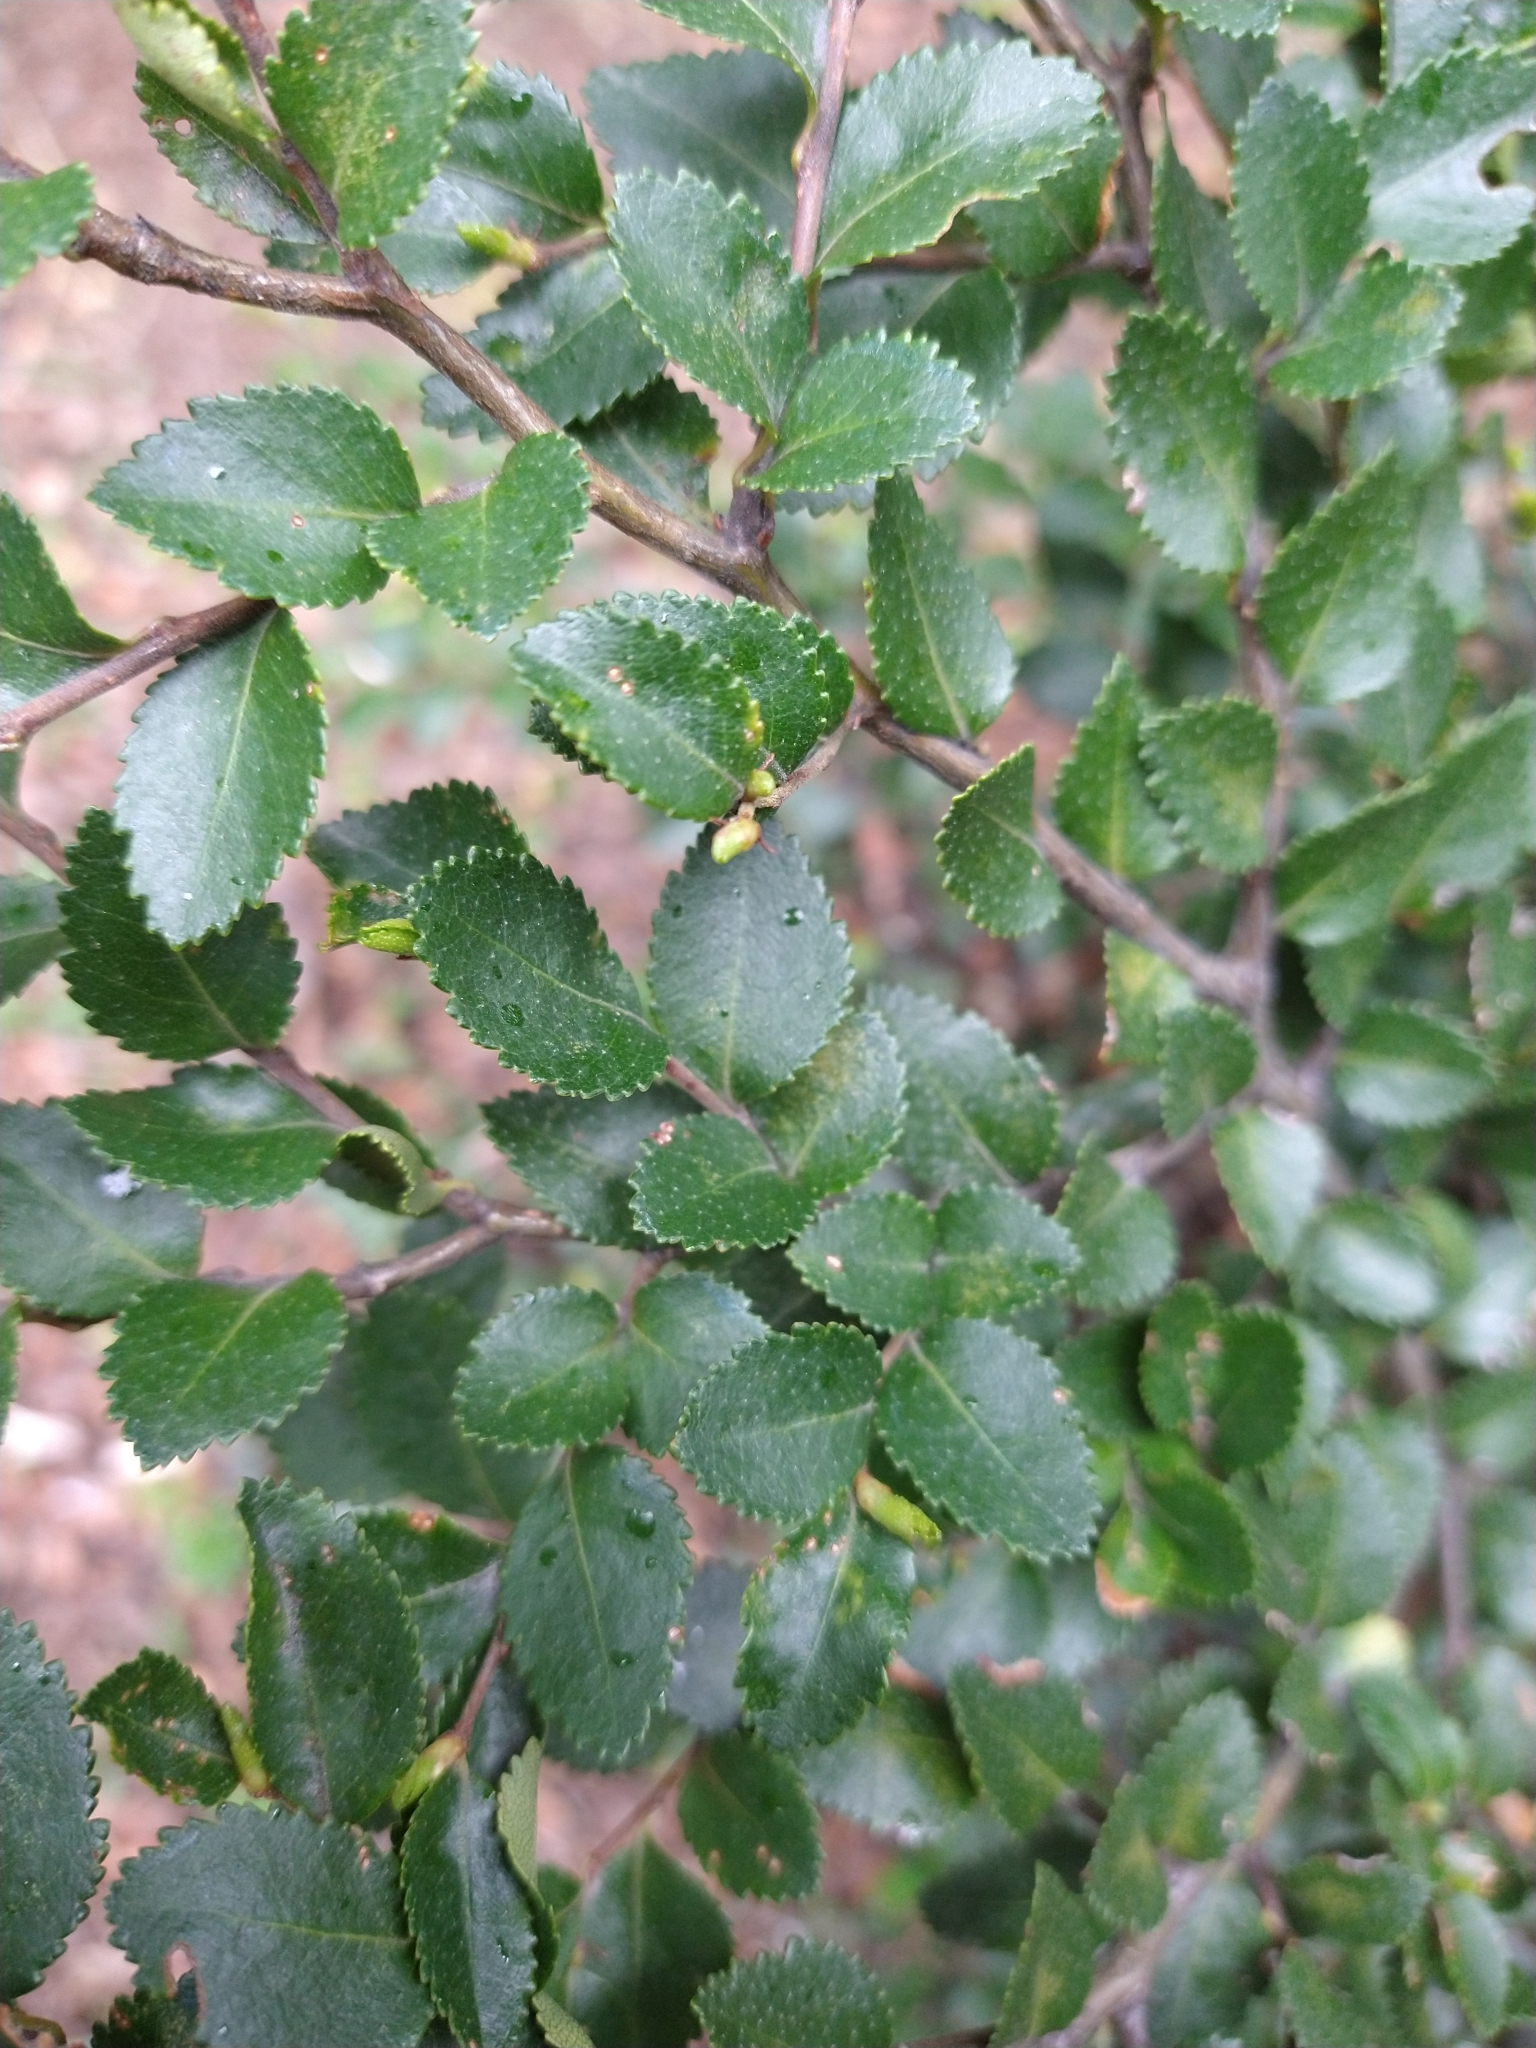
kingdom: Plantae
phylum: Tracheophyta
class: Magnoliopsida
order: Fagales
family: Nothofagaceae
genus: Nothofagus
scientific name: Nothofagus betuloides
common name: Magellan's beech
